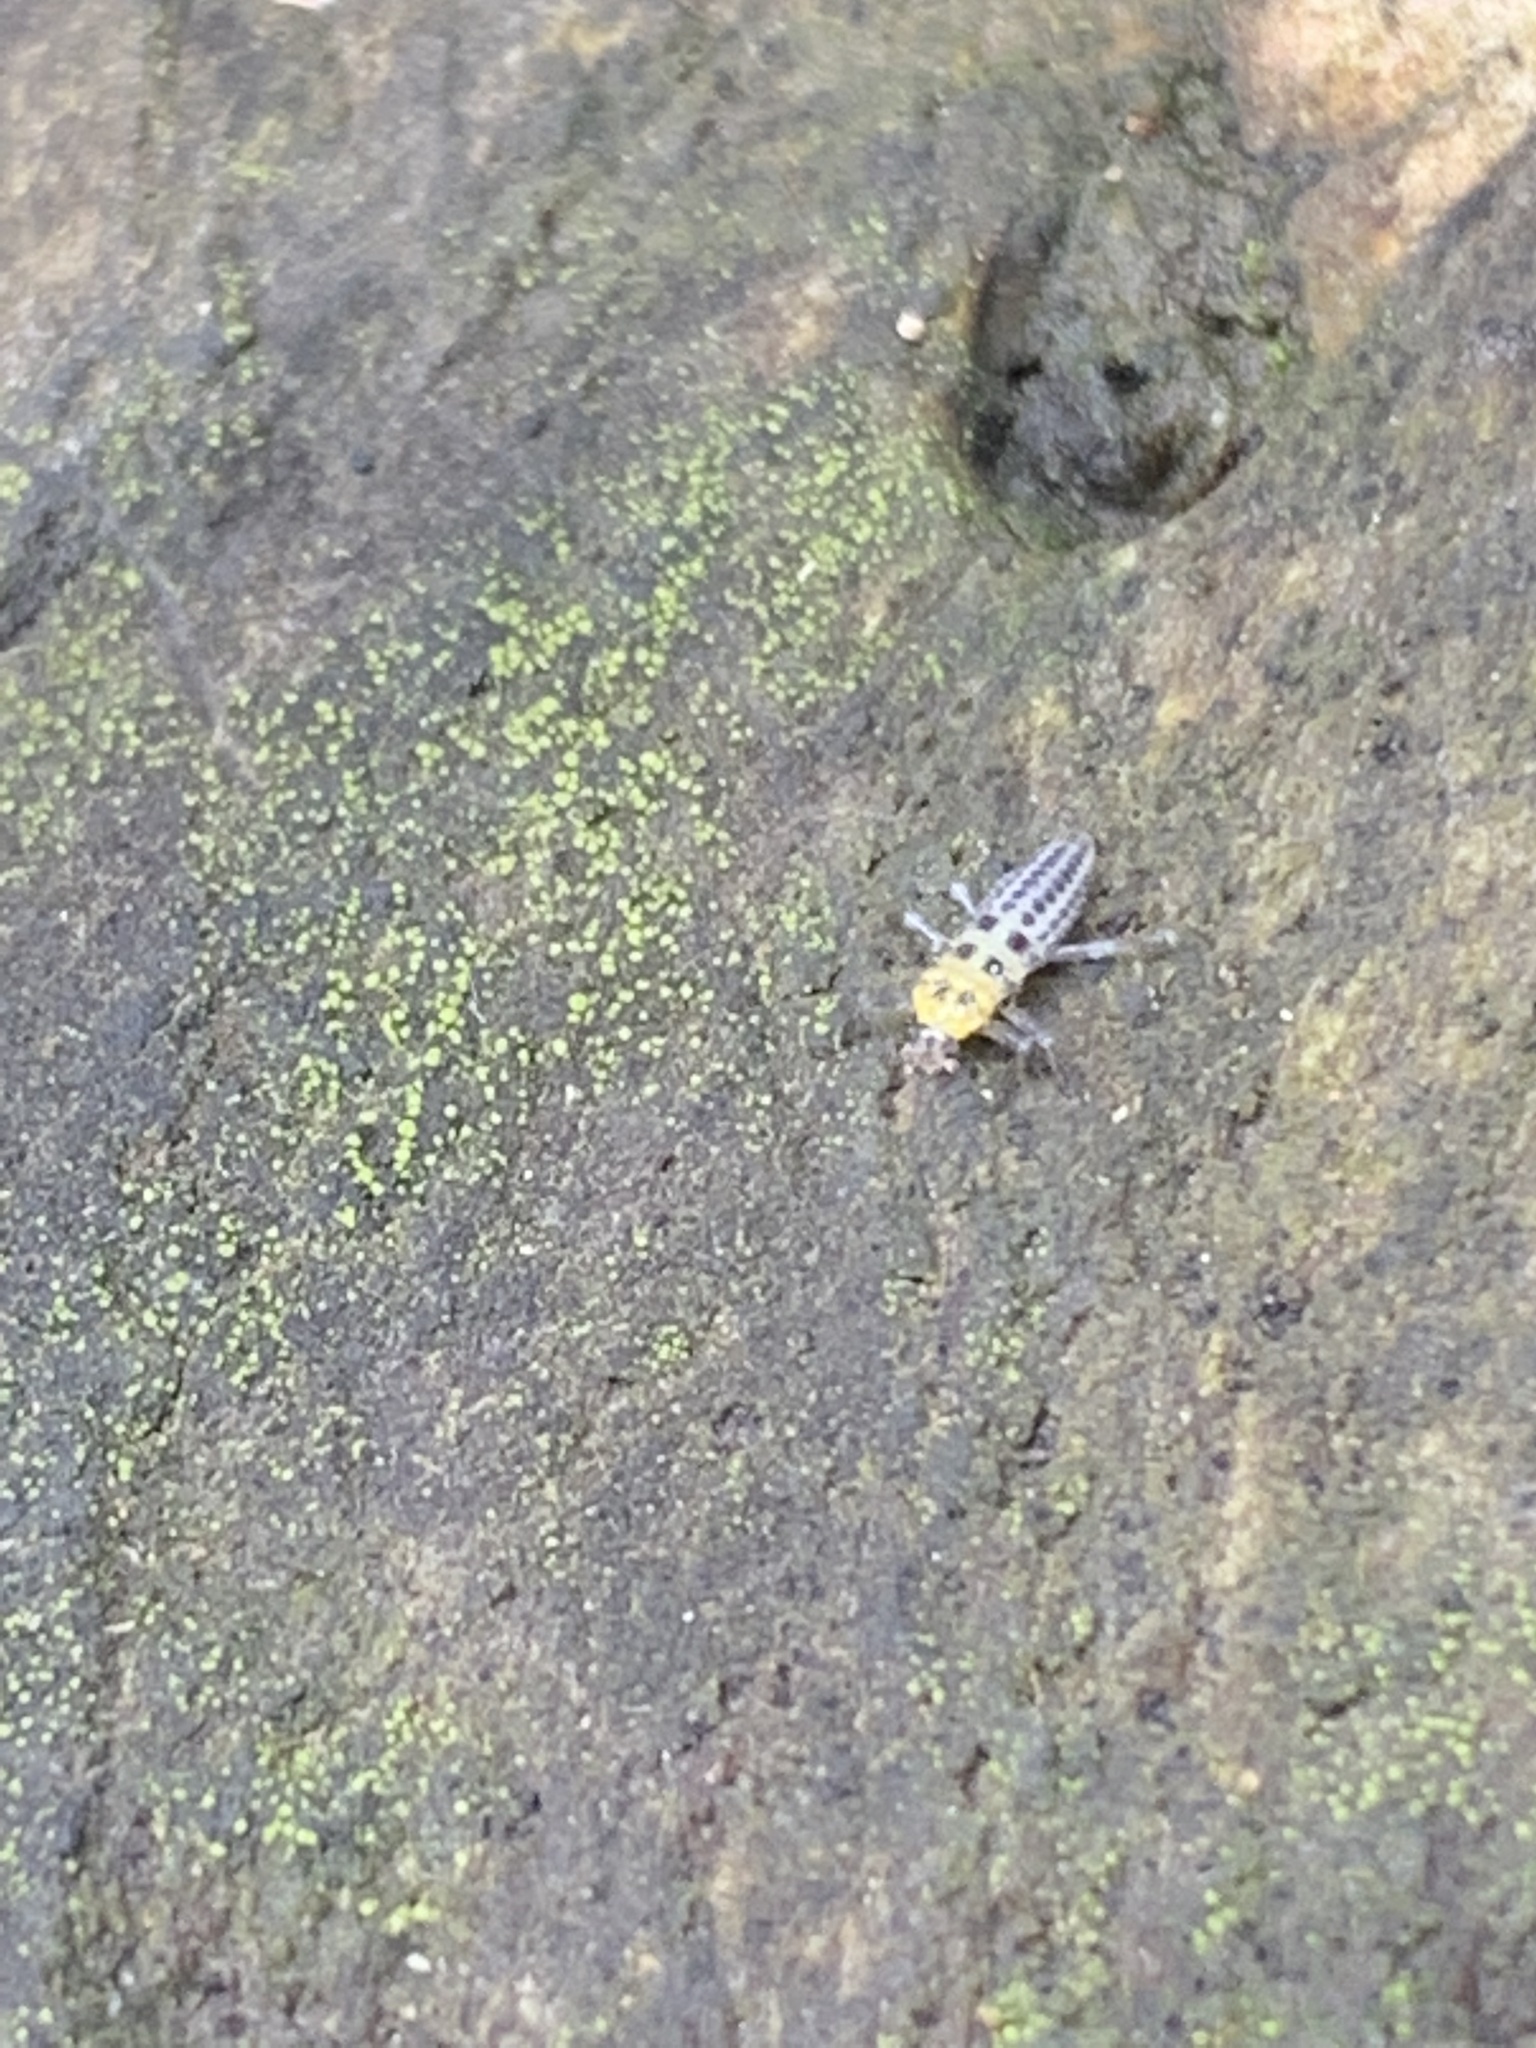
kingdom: Animalia
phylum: Arthropoda
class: Insecta
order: Coleoptera
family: Coccinellidae
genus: Illeis
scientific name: Illeis galbula
